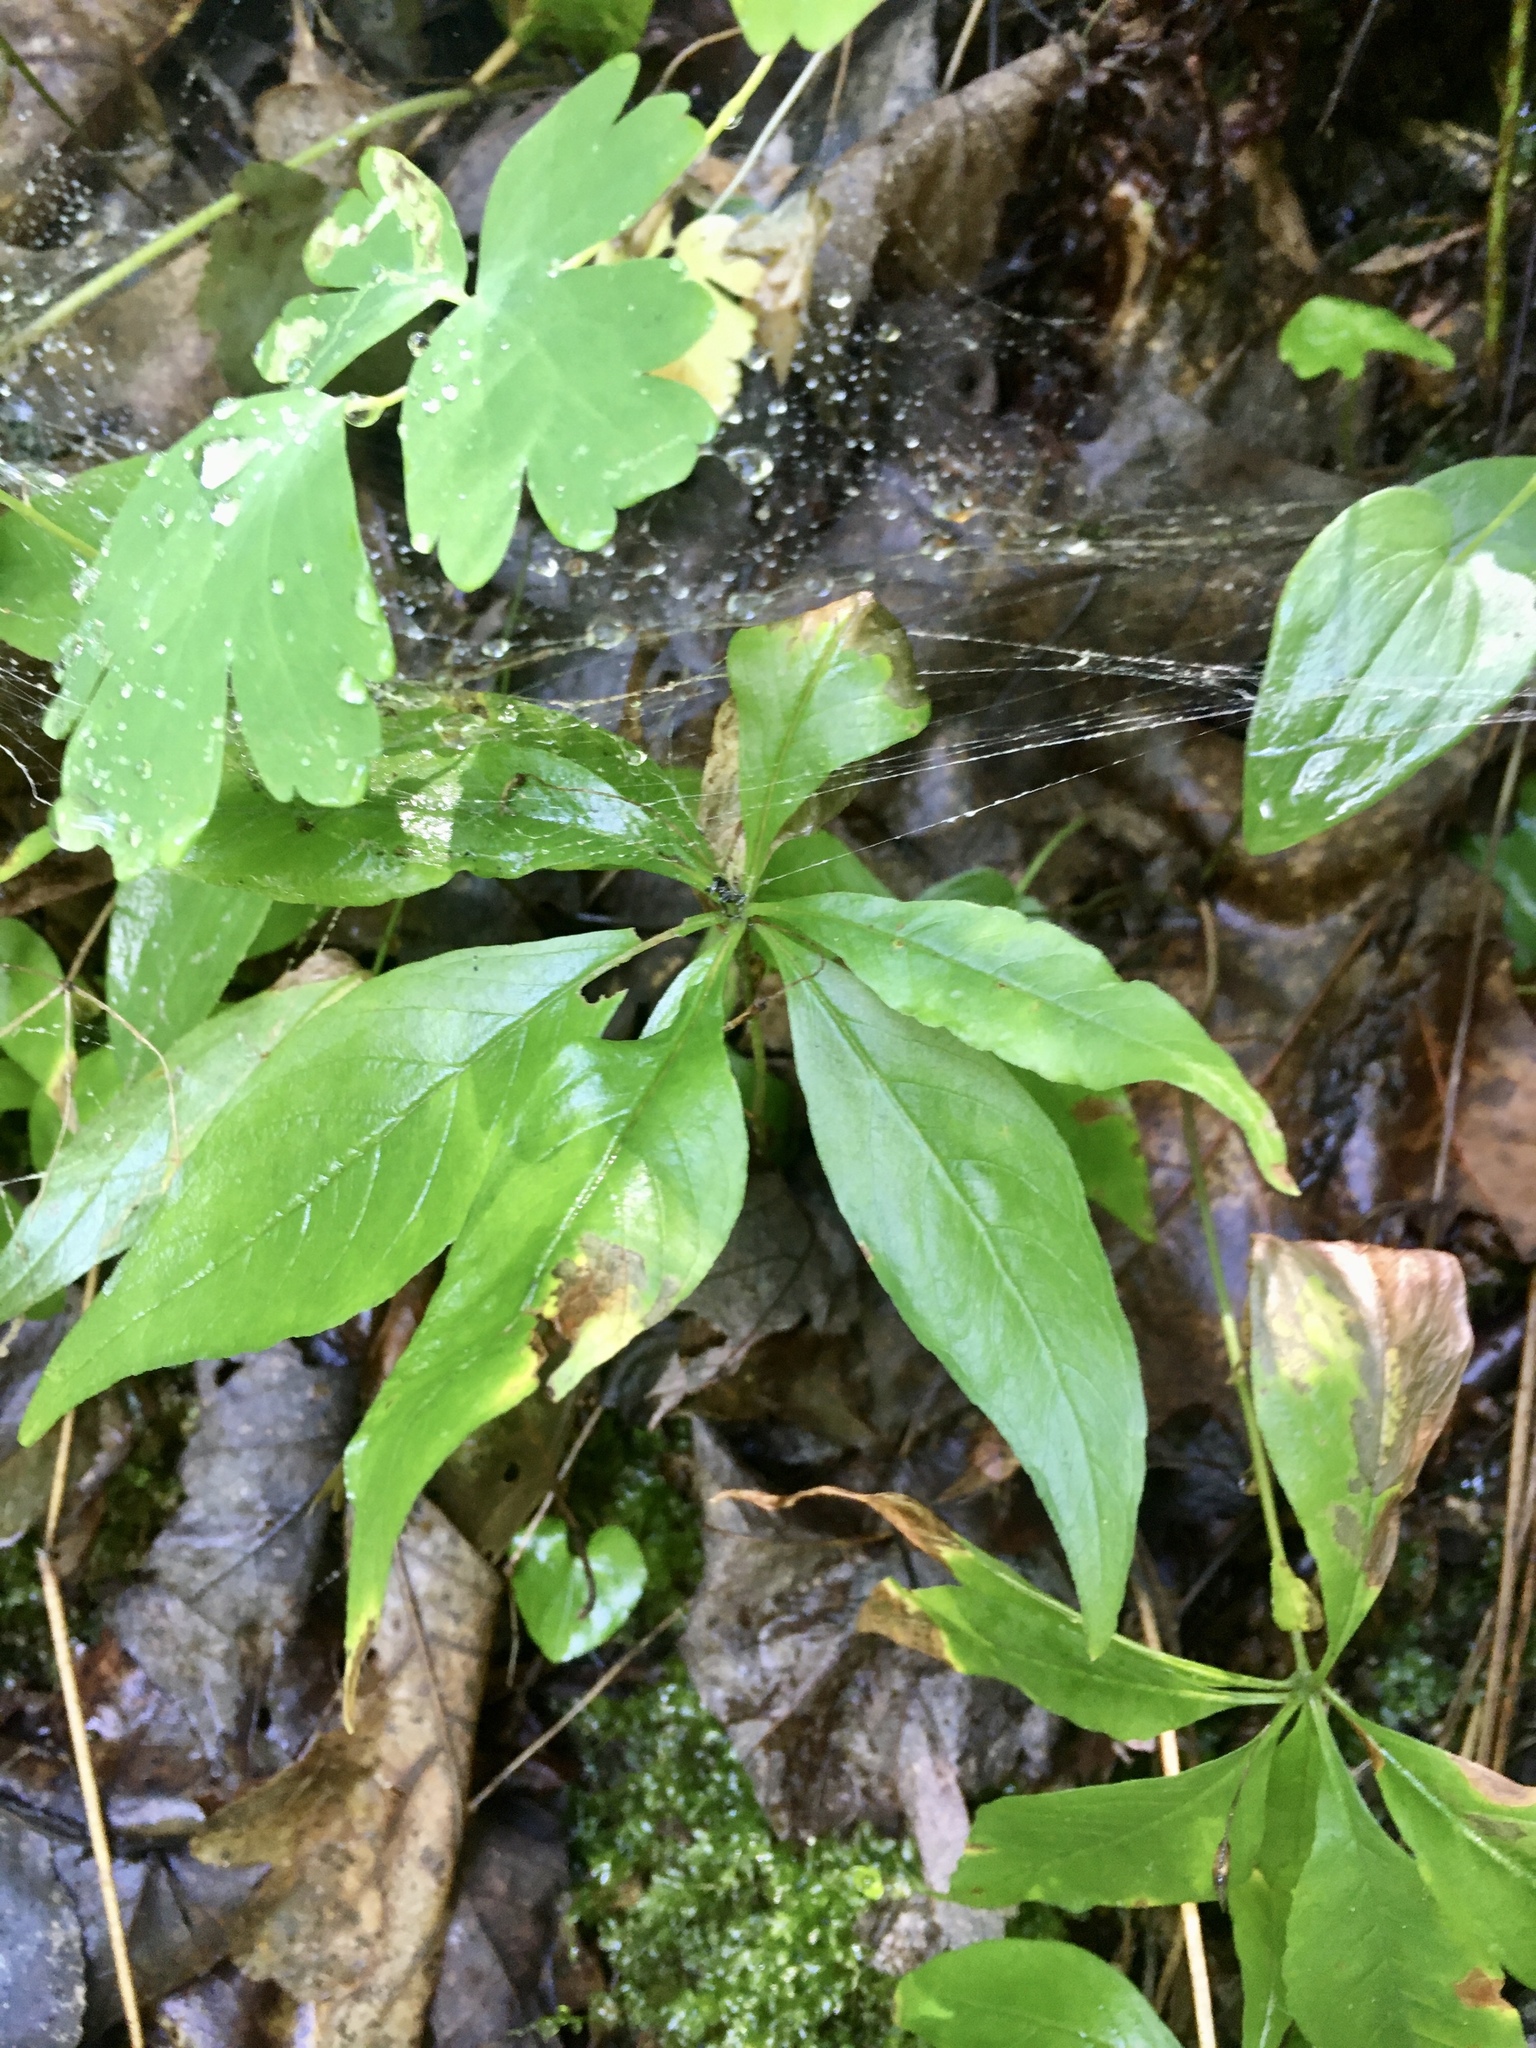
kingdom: Plantae
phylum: Tracheophyta
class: Magnoliopsida
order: Ericales
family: Primulaceae
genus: Lysimachia
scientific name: Lysimachia borealis
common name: American starflower
